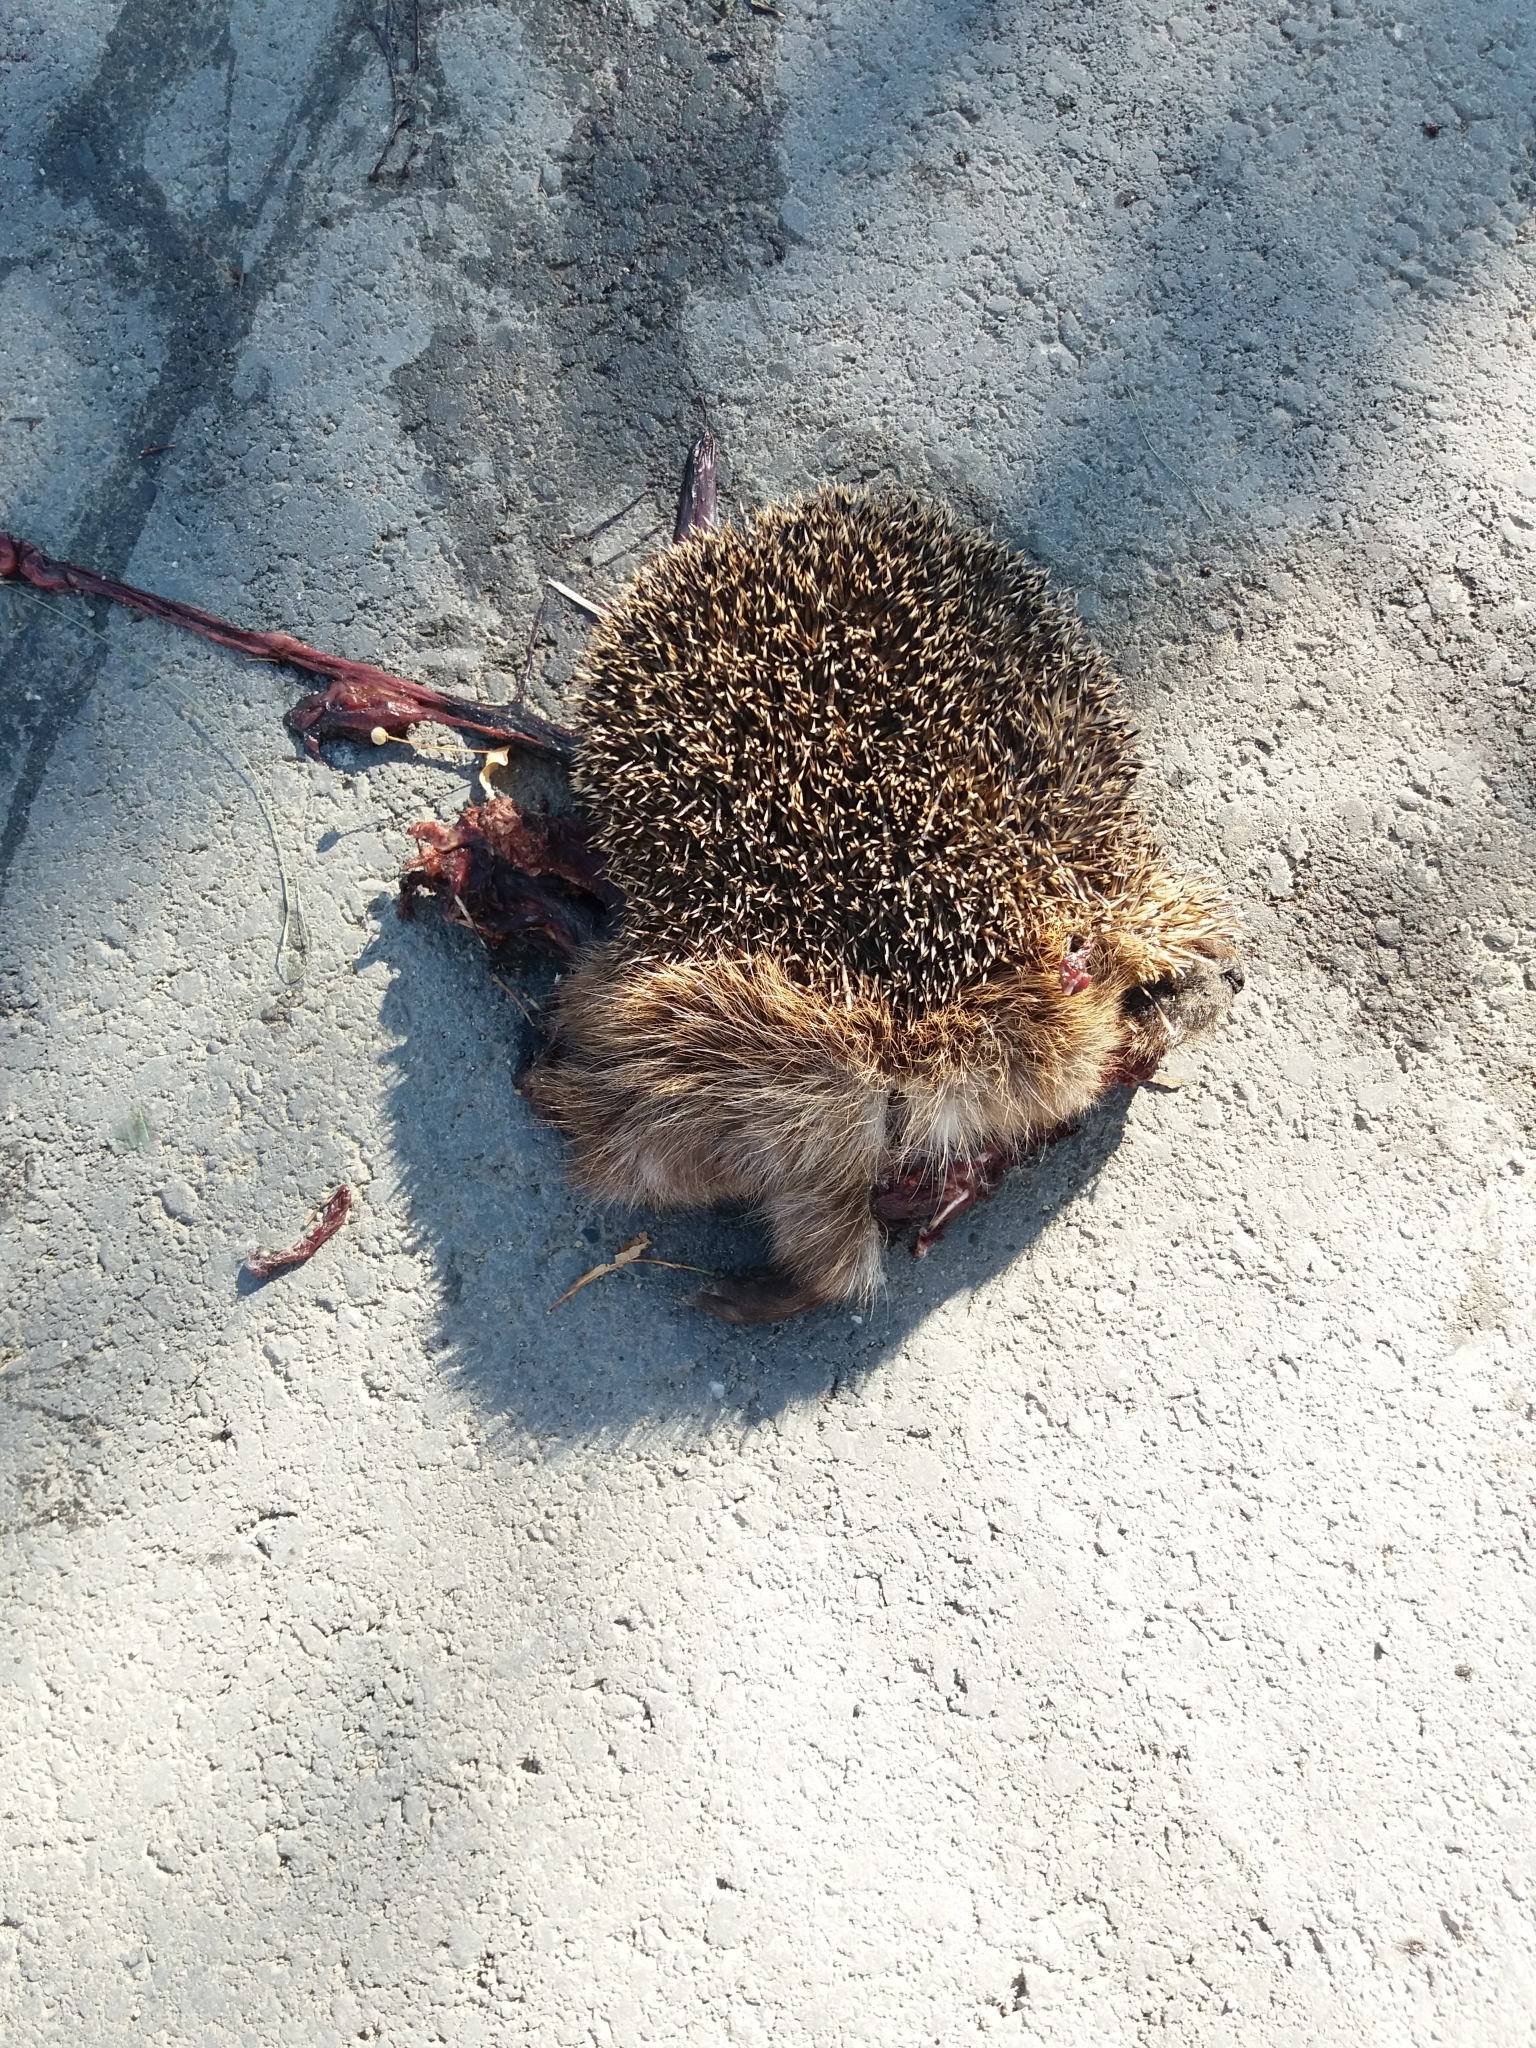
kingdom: Animalia
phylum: Chordata
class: Mammalia
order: Erinaceomorpha
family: Erinaceidae
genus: Erinaceus
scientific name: Erinaceus europaeus
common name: West european hedgehog
